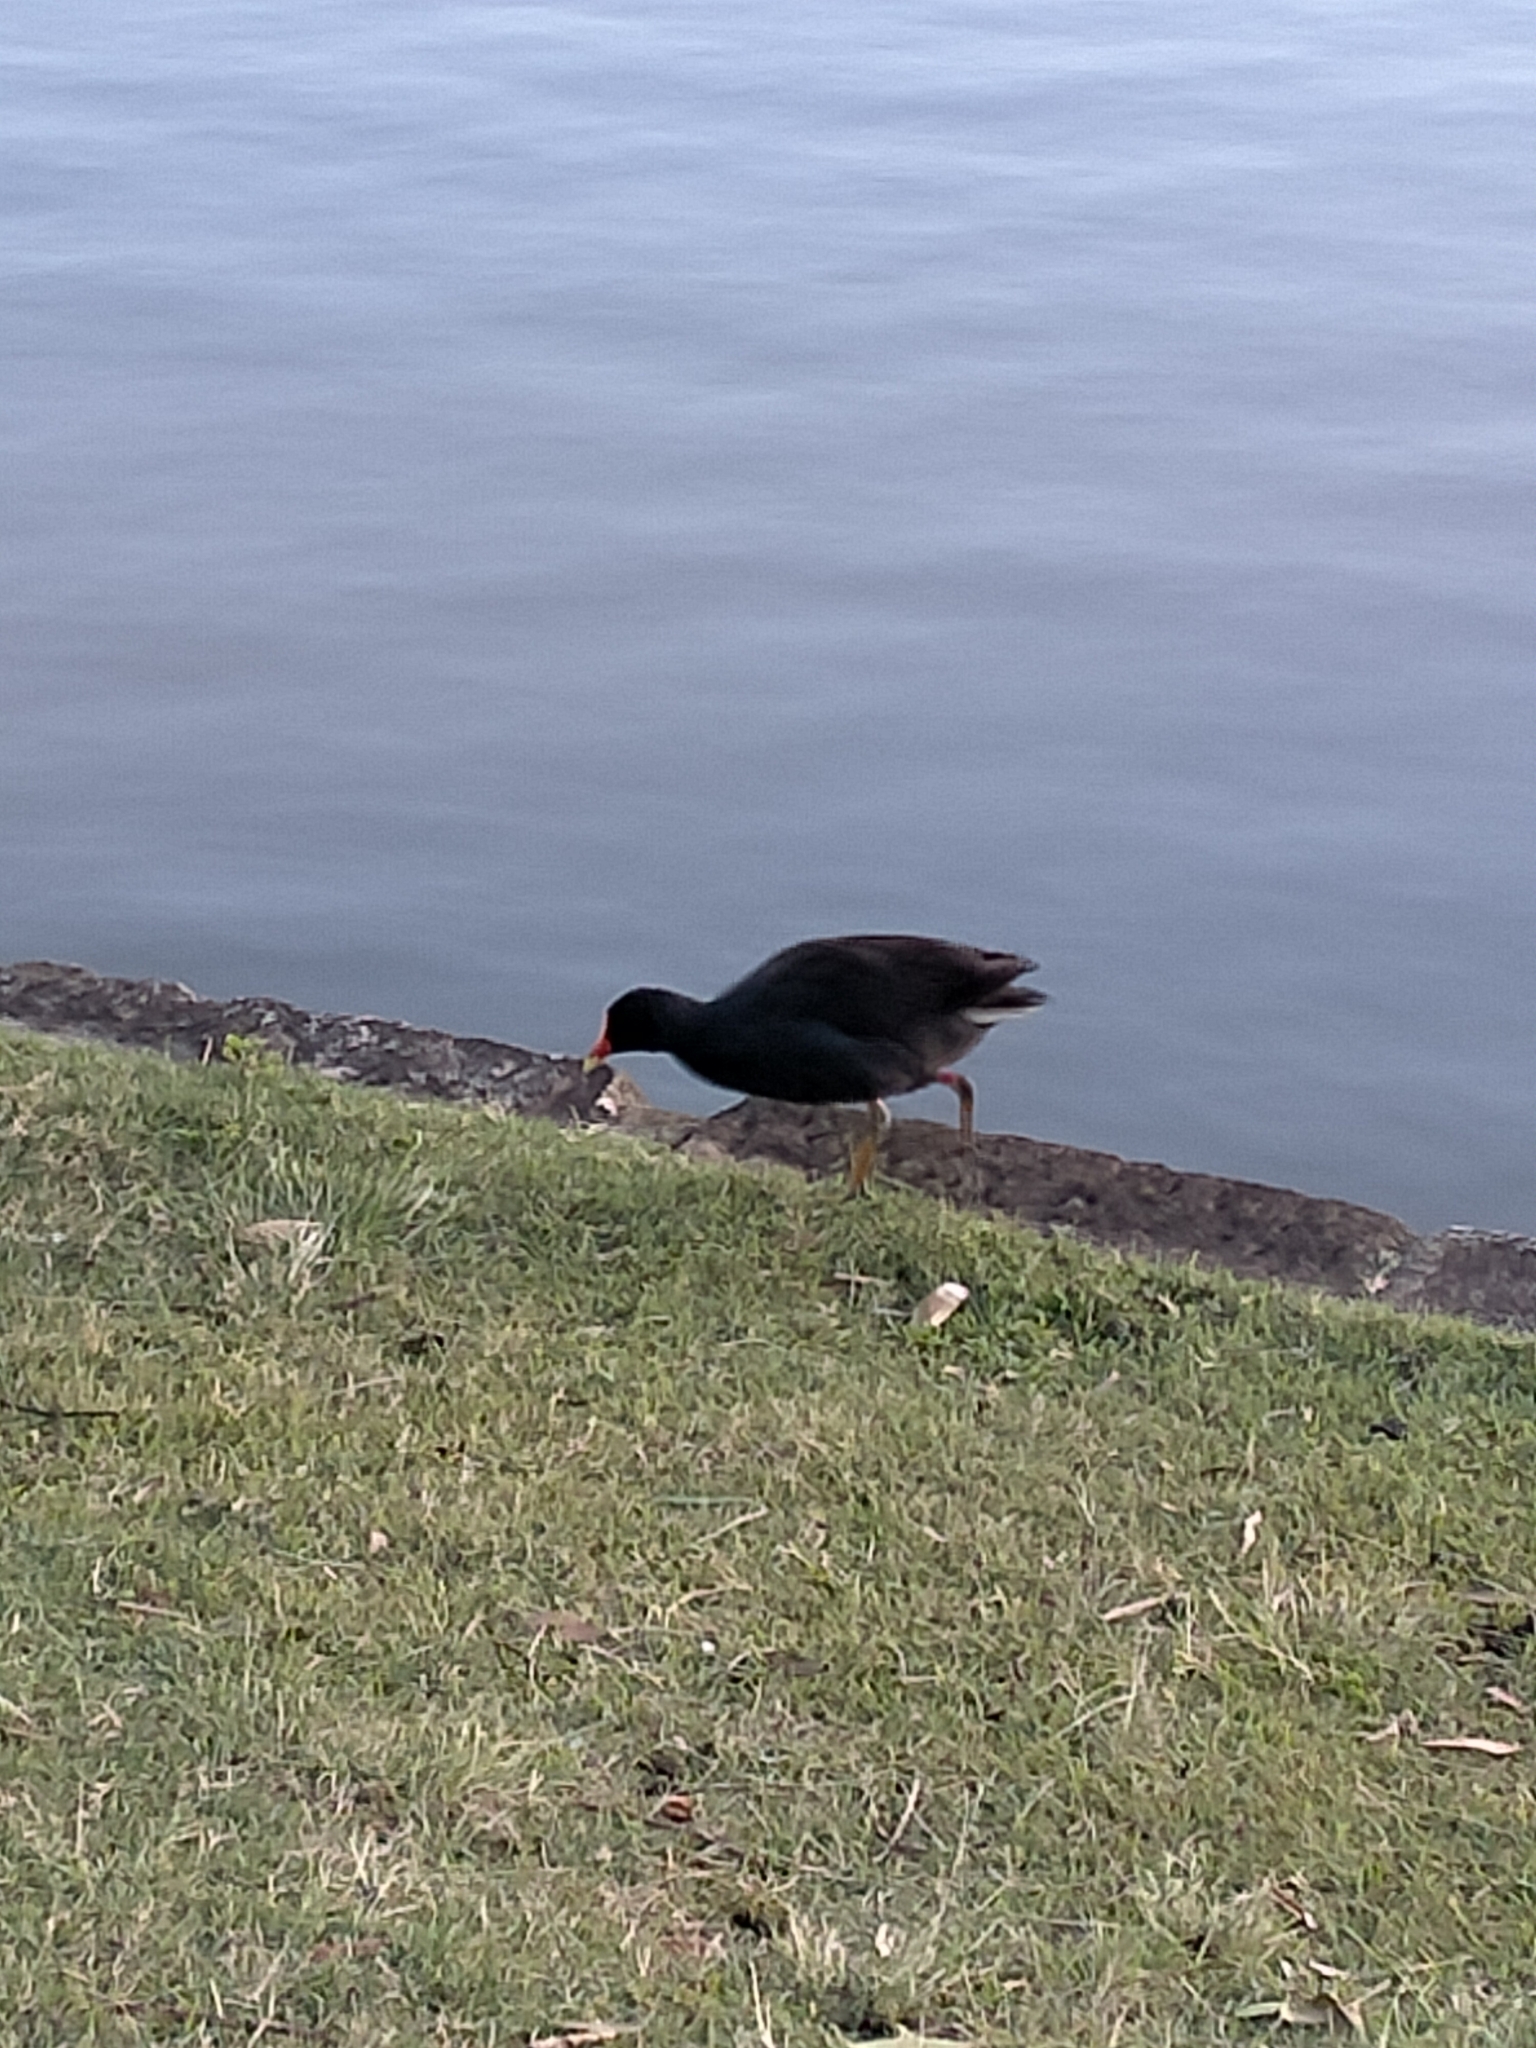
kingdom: Animalia
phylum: Chordata
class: Aves
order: Gruiformes
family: Rallidae
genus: Gallinula
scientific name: Gallinula tenebrosa
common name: Dusky moorhen
